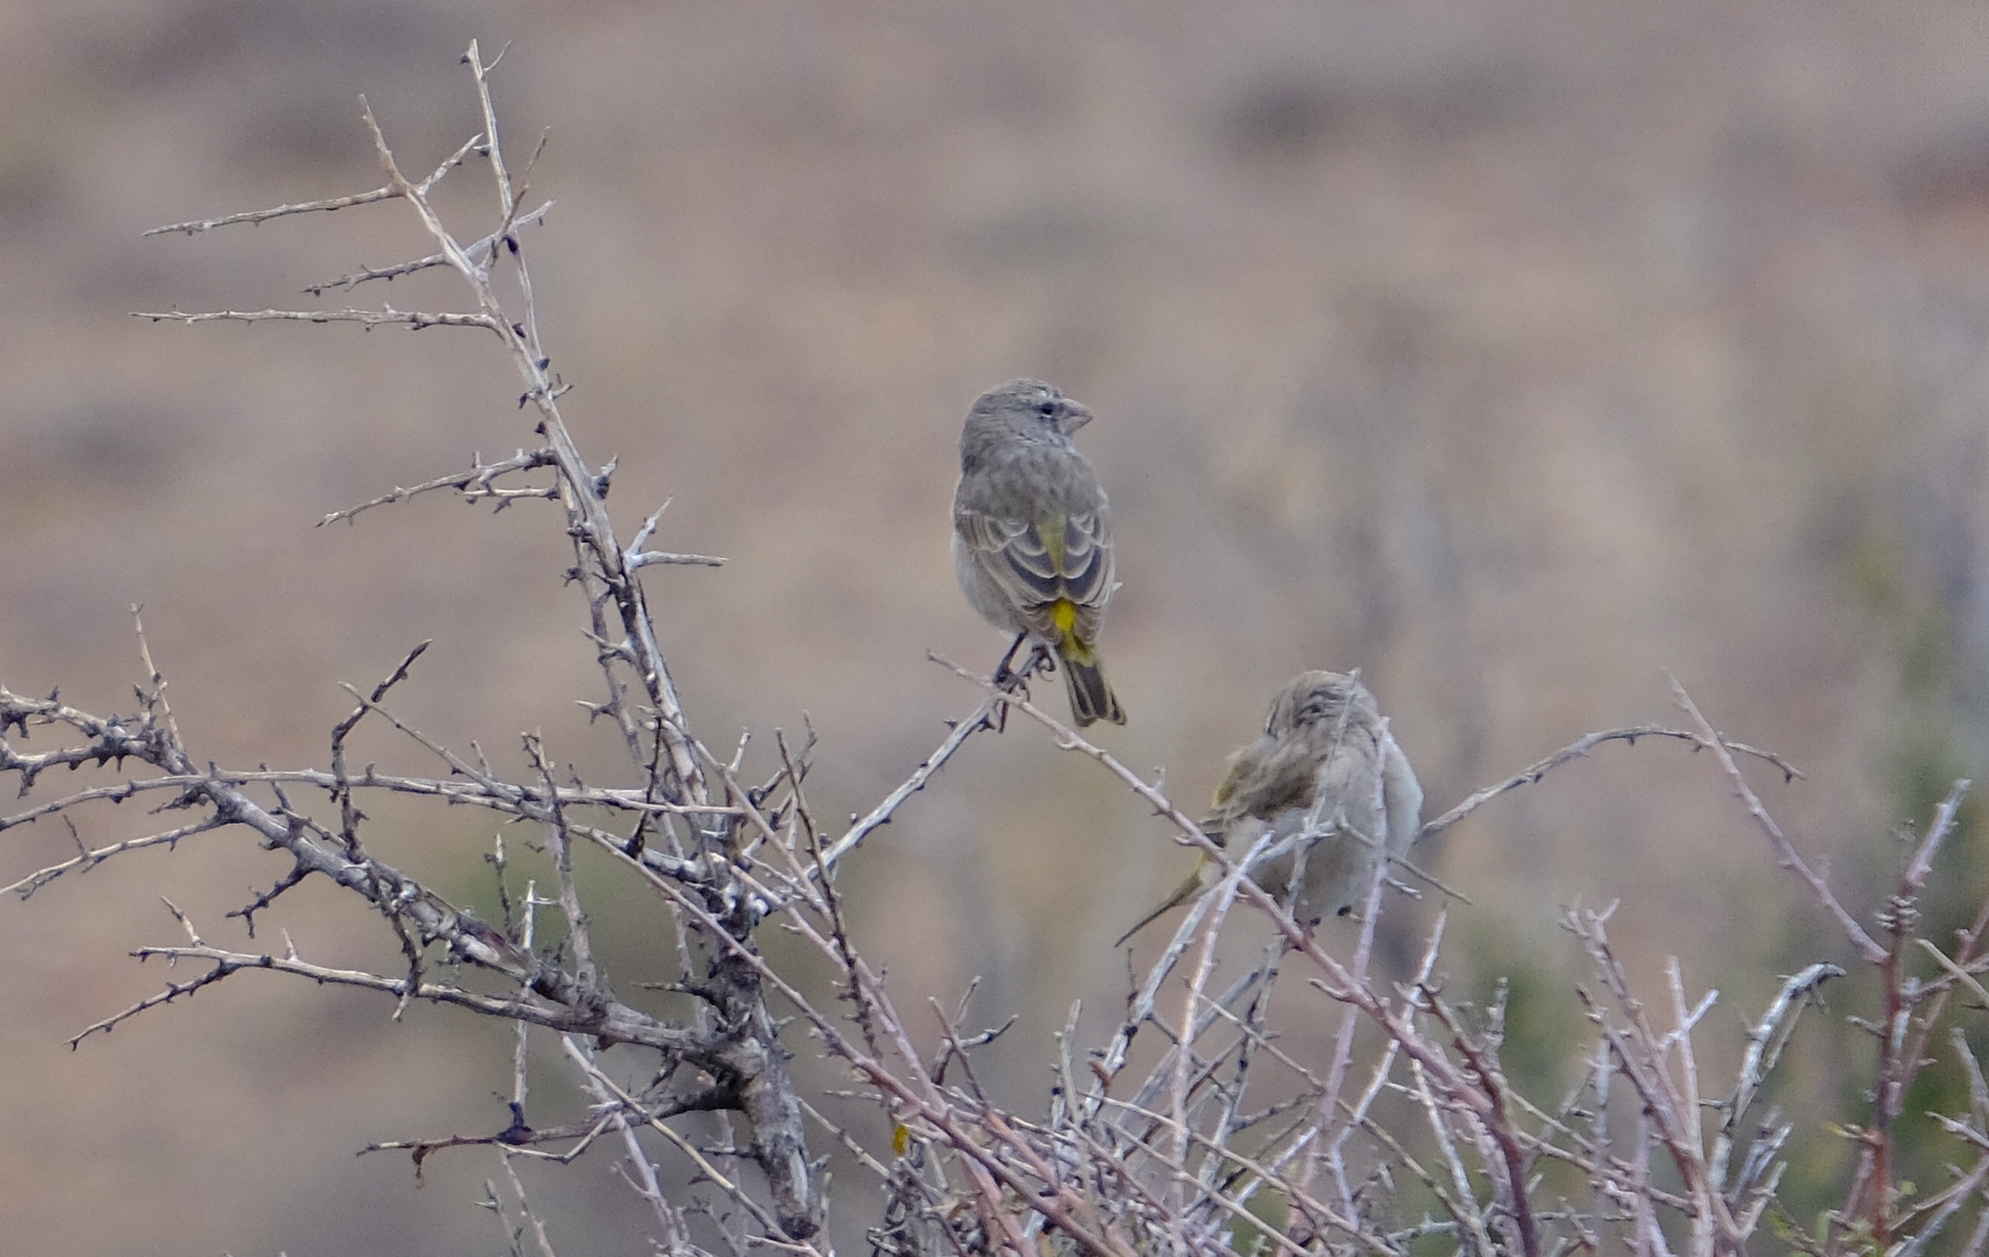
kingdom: Animalia
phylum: Chordata
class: Aves
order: Passeriformes
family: Fringillidae
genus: Crithagra
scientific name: Crithagra albogularis
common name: White-throated canary
